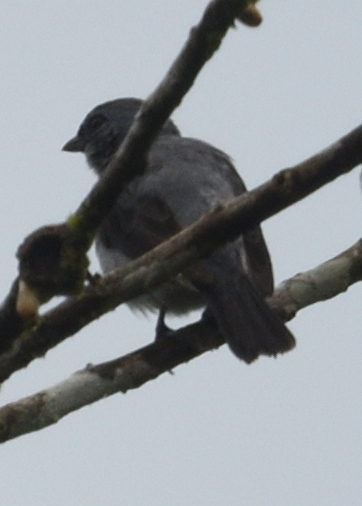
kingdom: Animalia
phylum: Chordata
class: Aves
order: Passeriformes
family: Thraupidae
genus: Tangara
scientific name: Tangara inornata
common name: Plain-colored tanager
